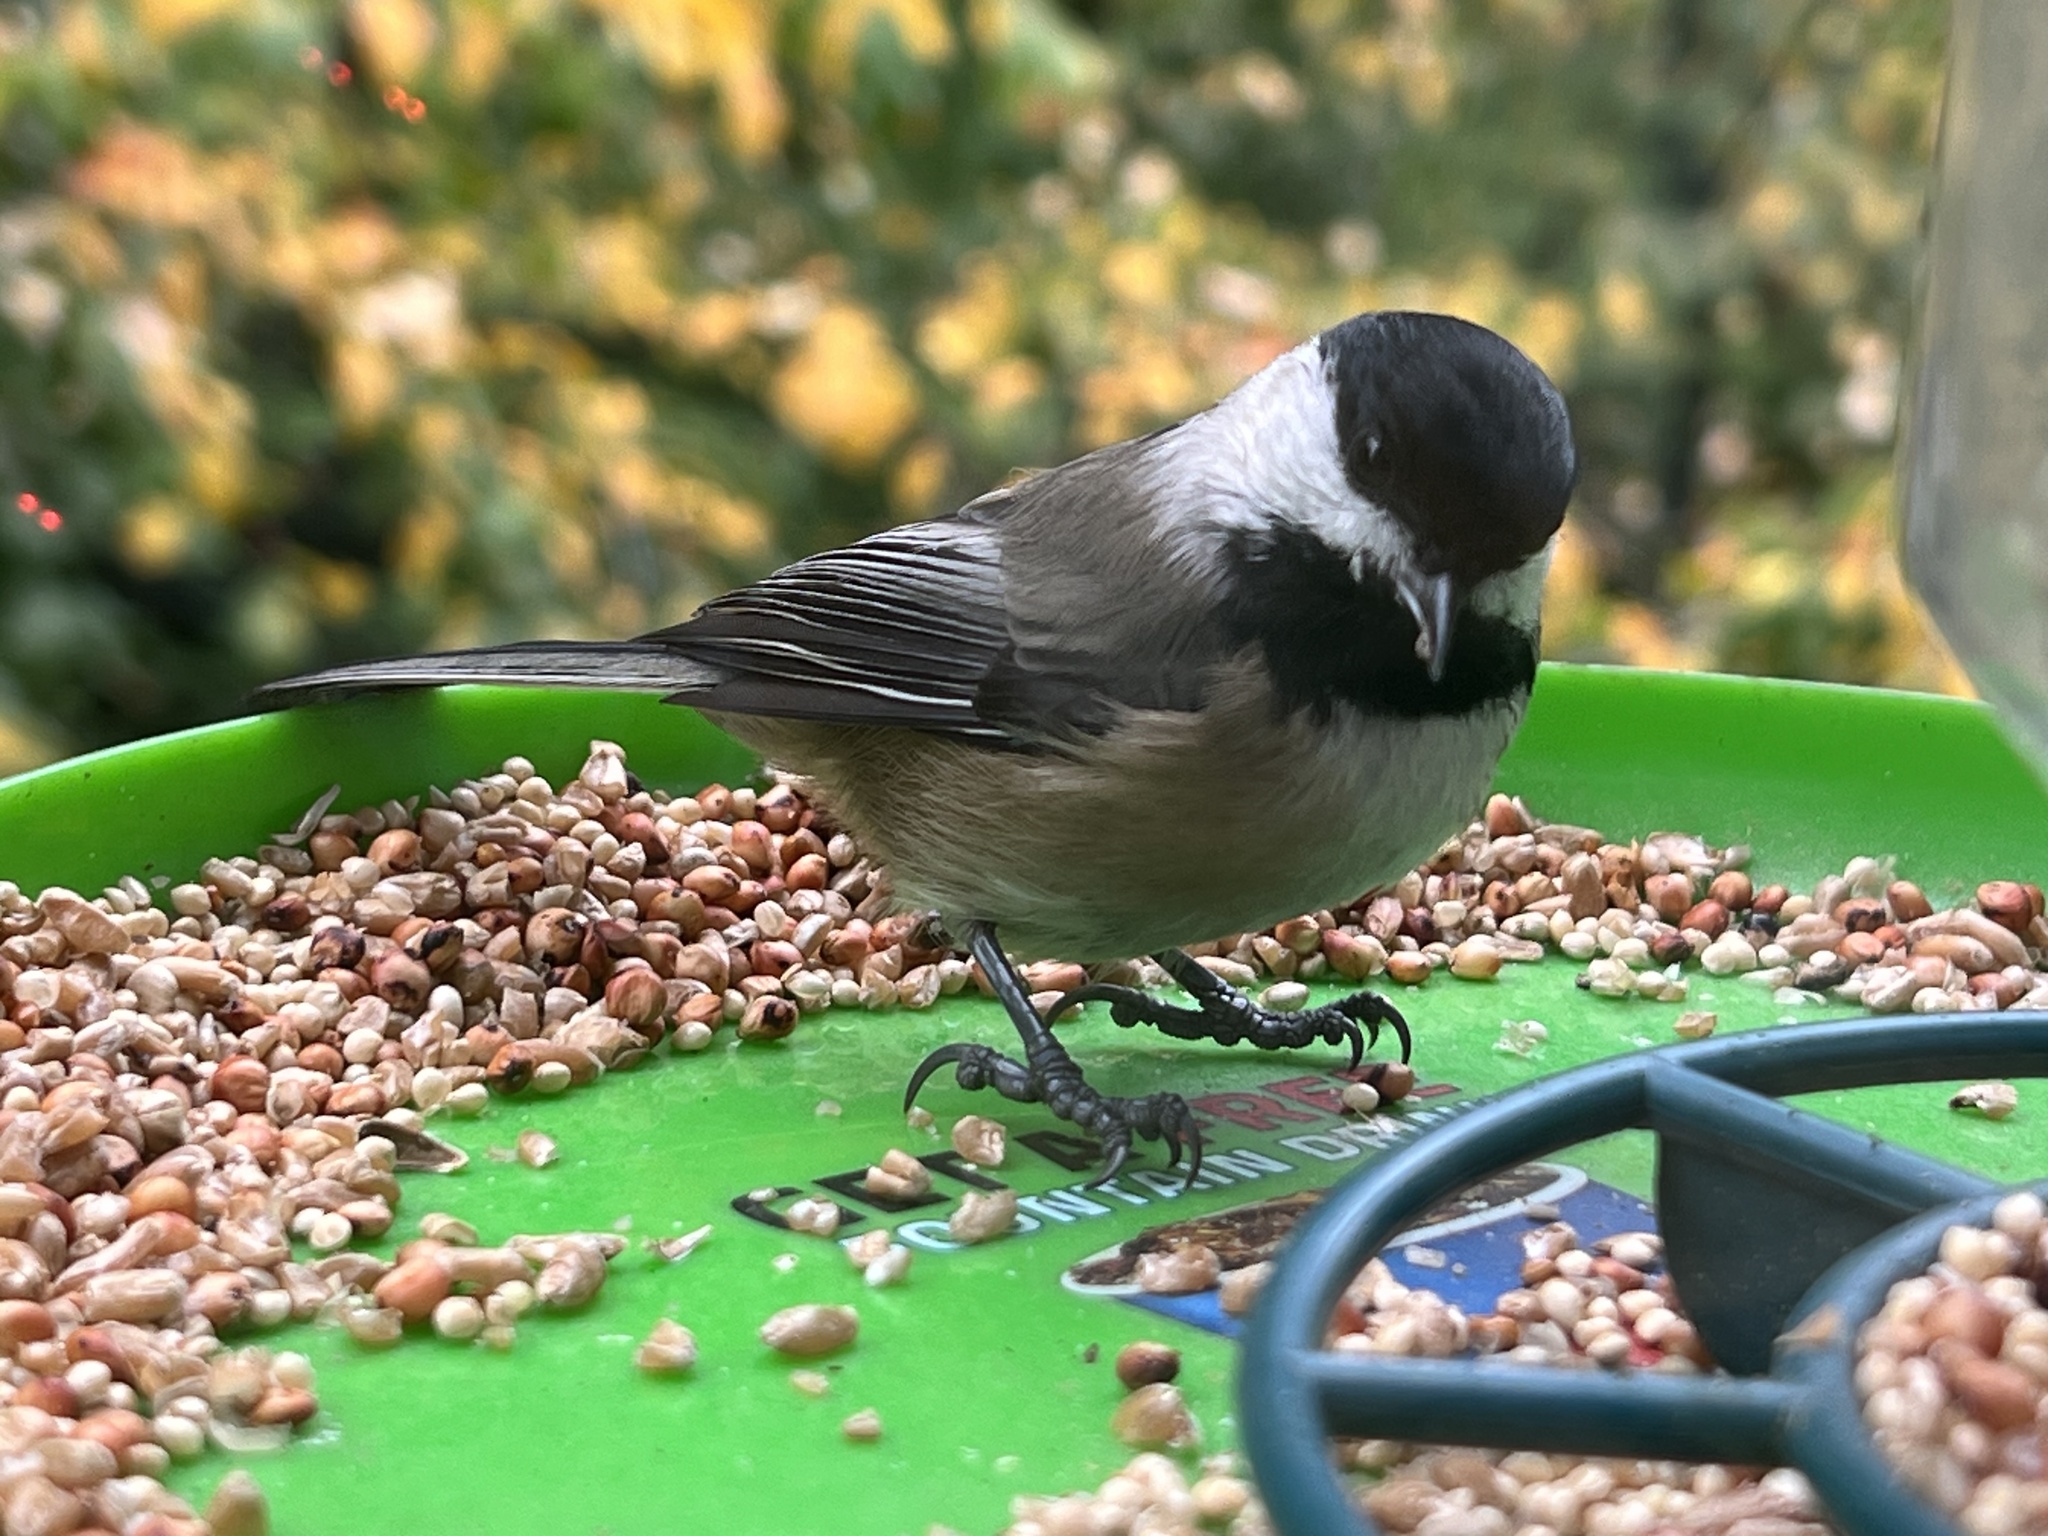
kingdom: Animalia
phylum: Chordata
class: Aves
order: Passeriformes
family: Paridae
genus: Poecile
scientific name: Poecile atricapillus
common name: Black-capped chickadee
